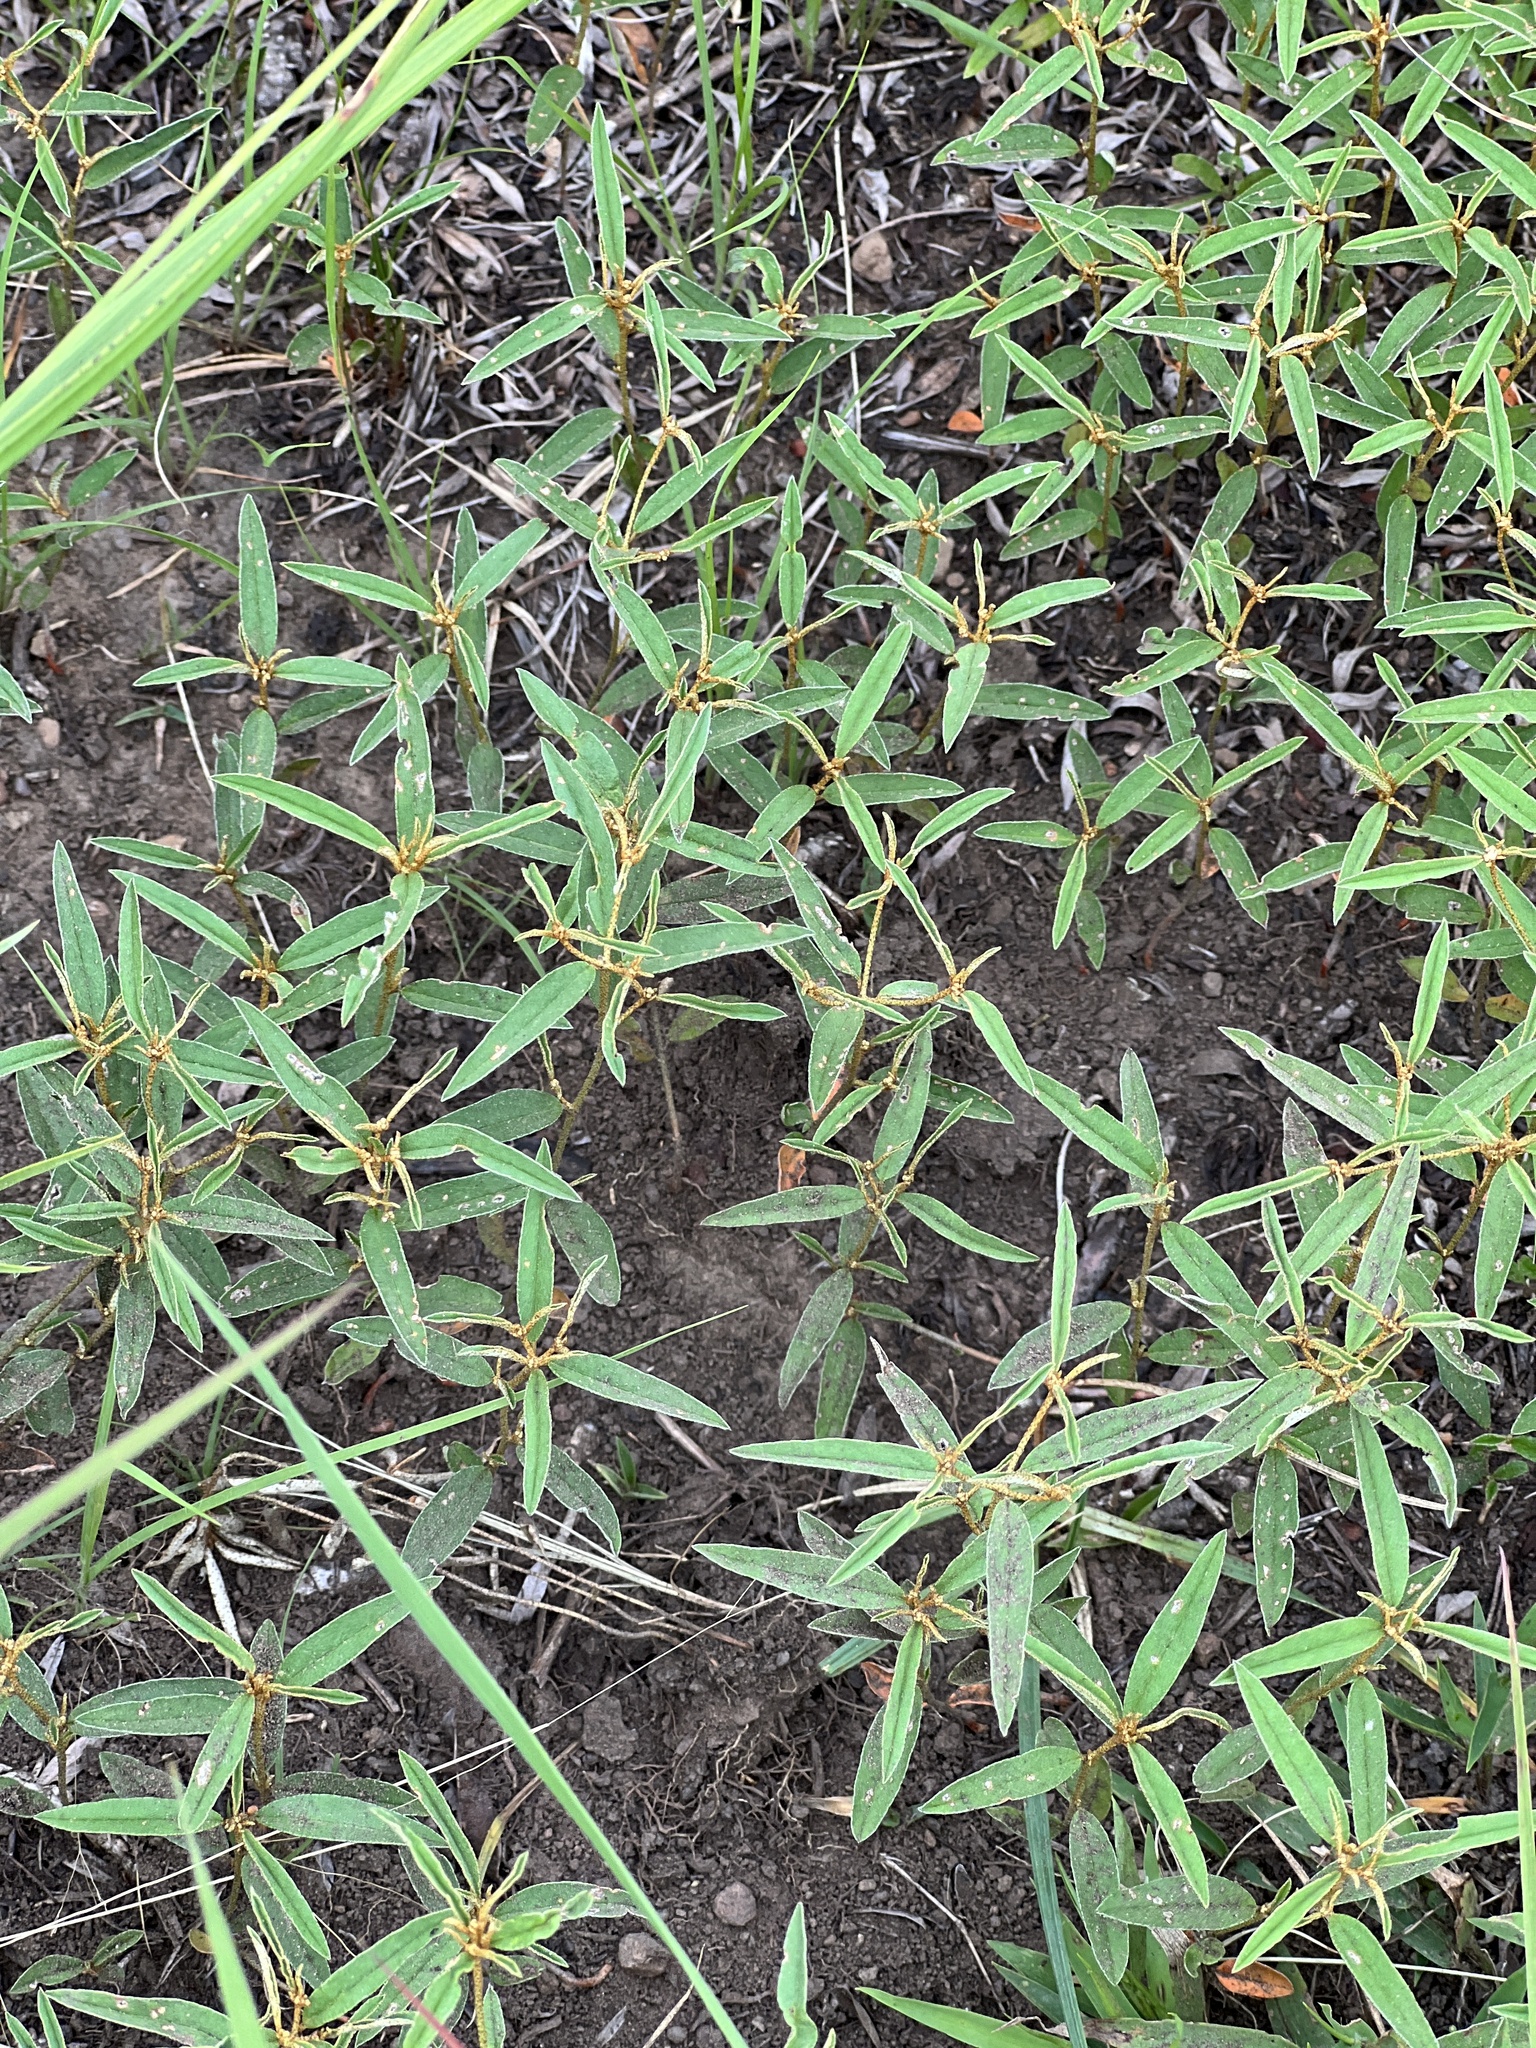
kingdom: Plantae
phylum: Tracheophyta
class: Magnoliopsida
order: Malpighiales
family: Euphorbiaceae
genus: Croton
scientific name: Croton michauxii
